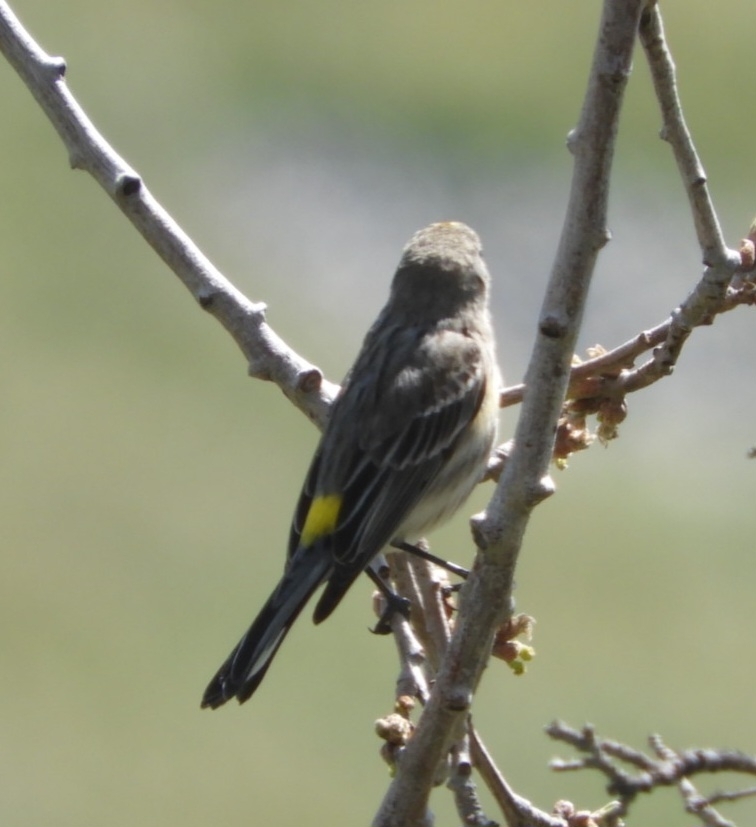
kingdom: Animalia
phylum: Chordata
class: Aves
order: Passeriformes
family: Parulidae
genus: Setophaga
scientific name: Setophaga coronata
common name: Myrtle warbler
